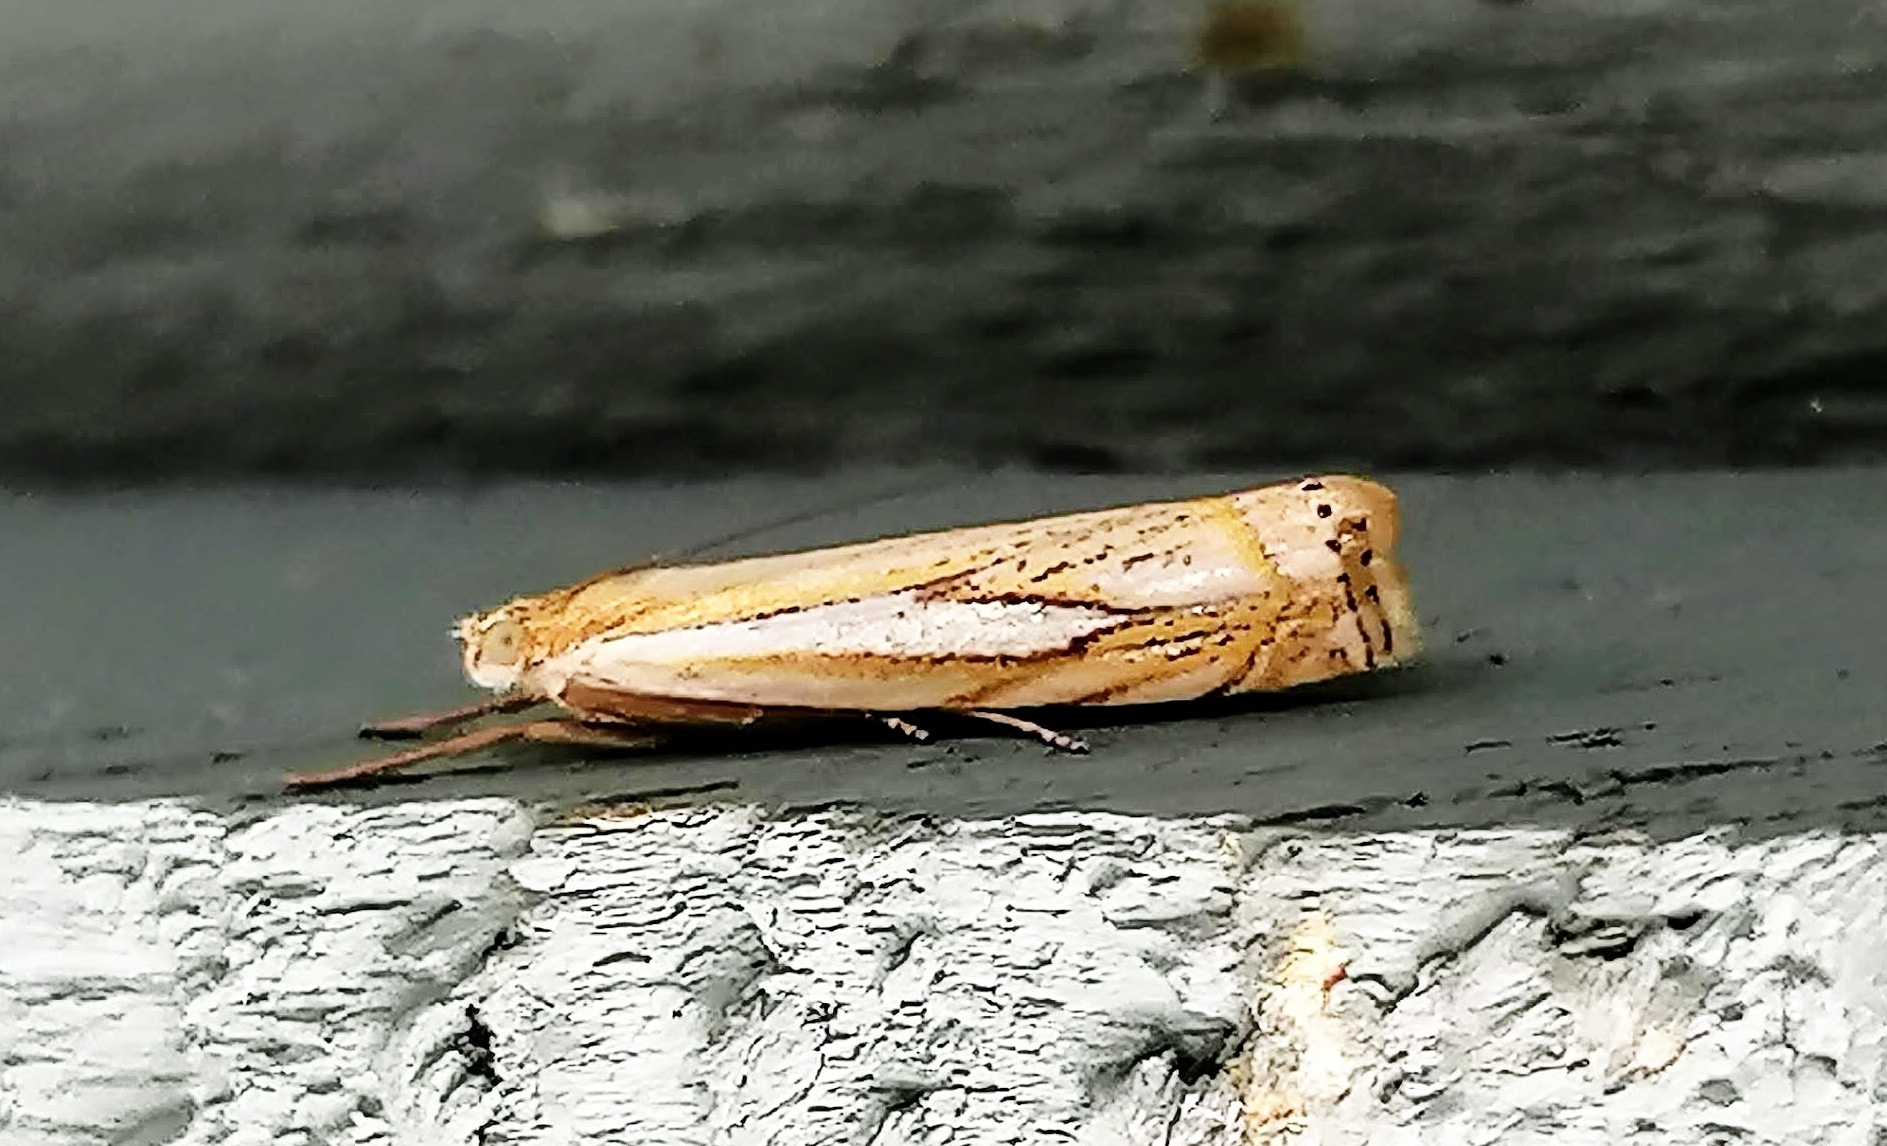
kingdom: Animalia
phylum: Arthropoda
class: Insecta
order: Lepidoptera
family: Crambidae
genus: Crambus
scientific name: Crambus saltuellus
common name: Pasture grass-veneer
